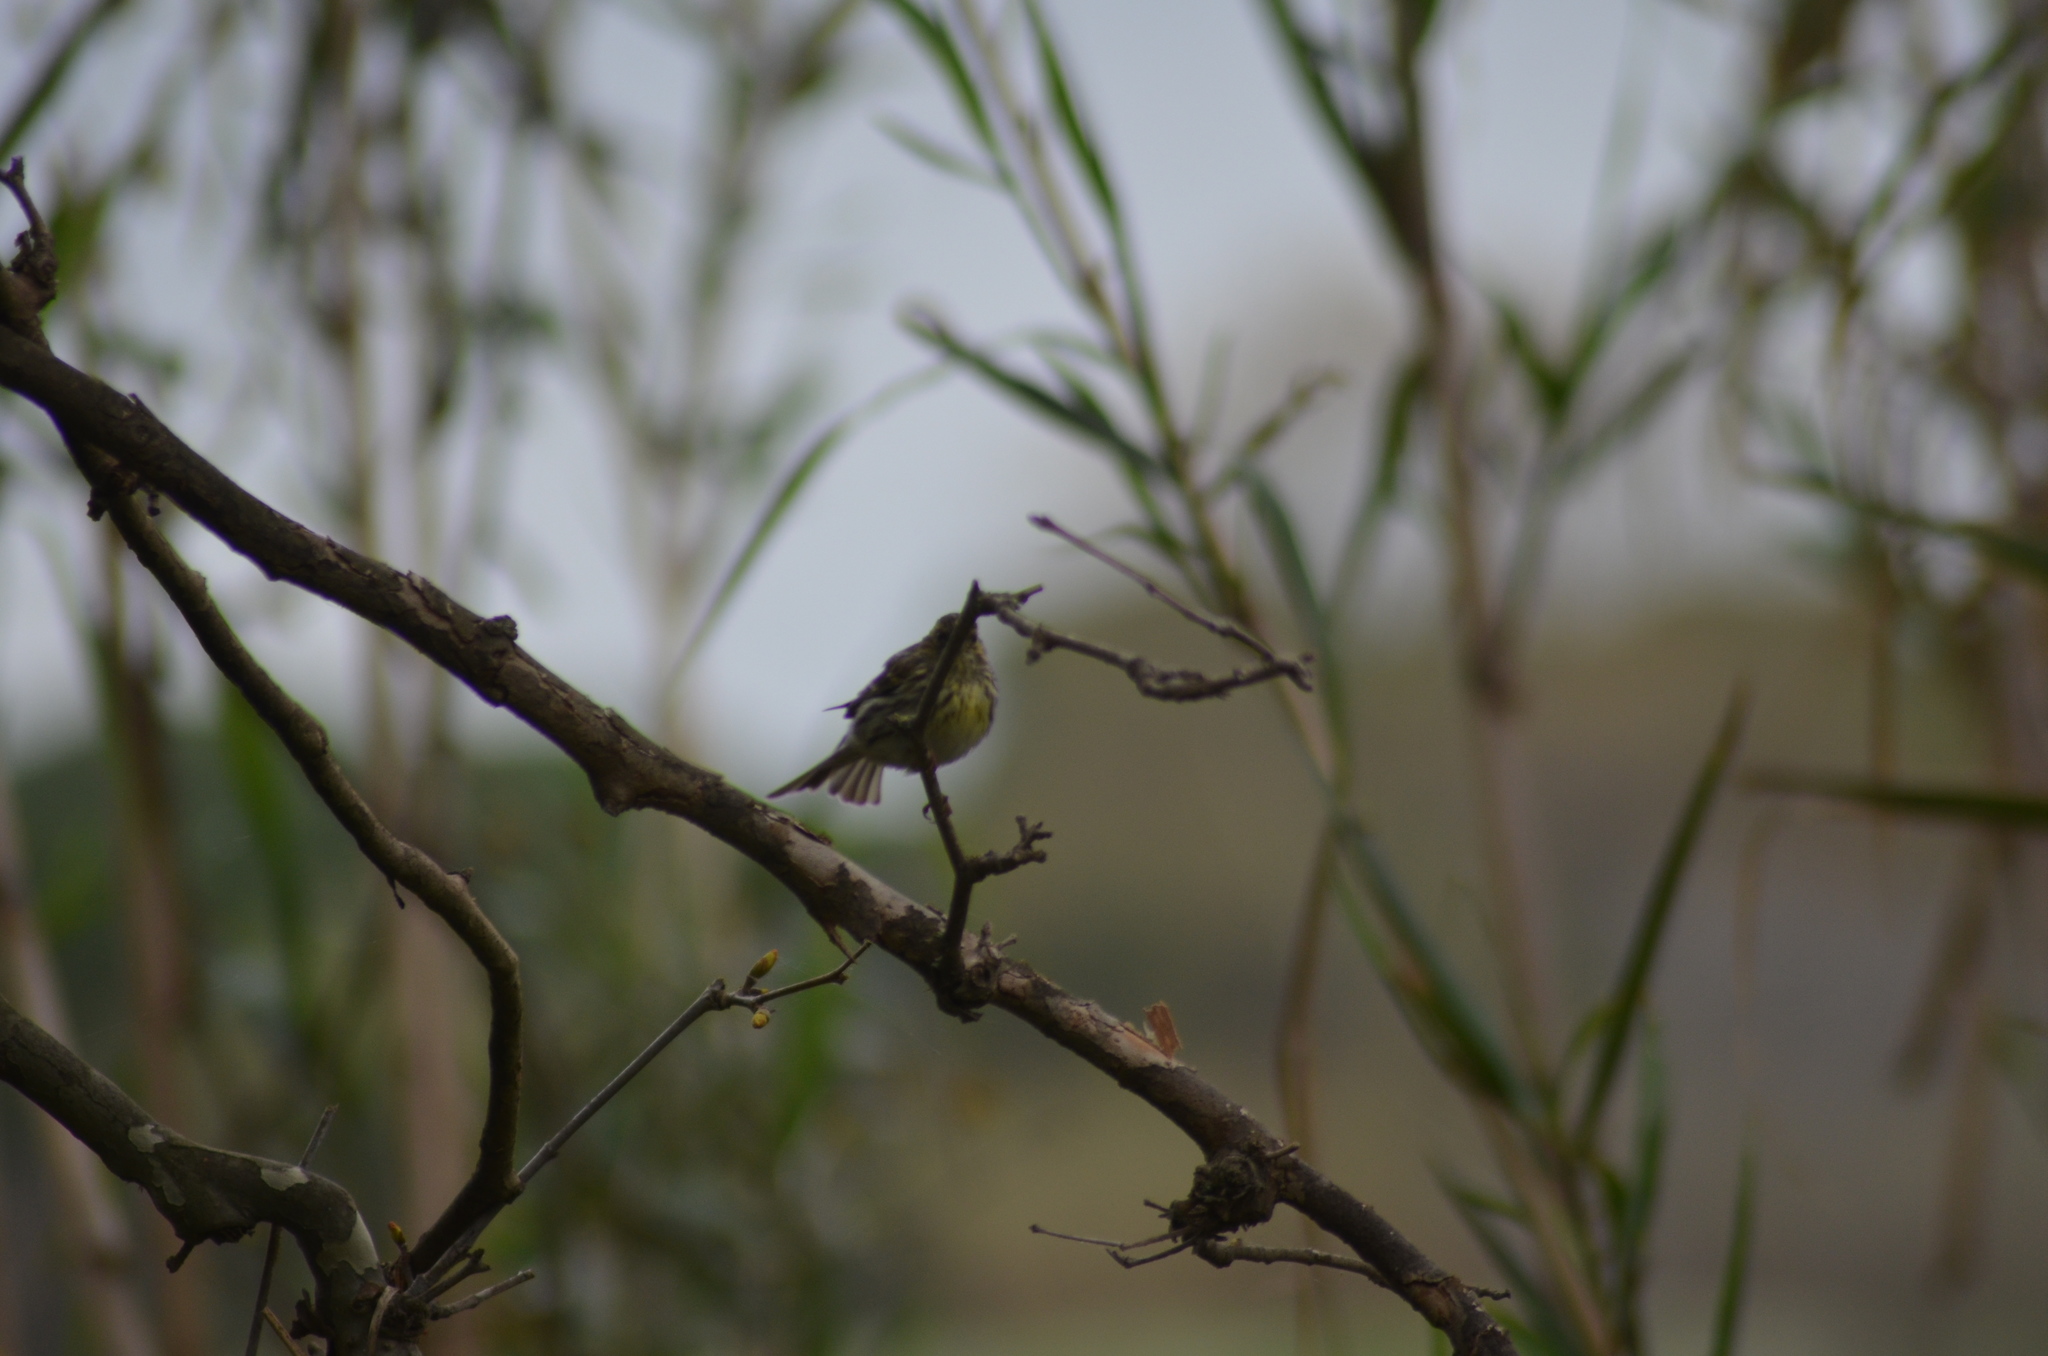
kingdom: Animalia
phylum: Chordata
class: Aves
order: Passeriformes
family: Fringillidae
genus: Serinus
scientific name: Serinus serinus
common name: European serin
